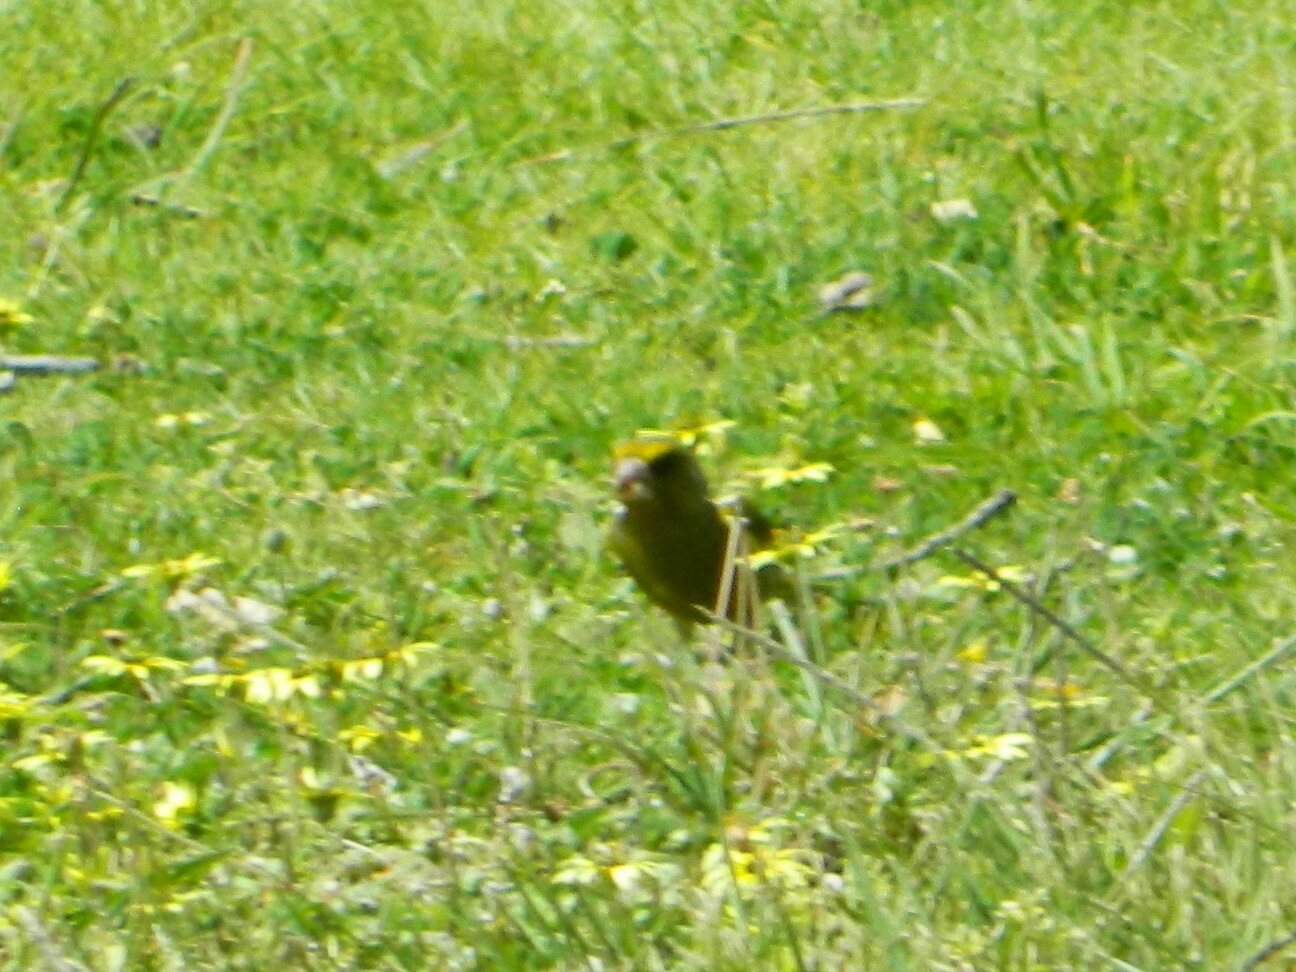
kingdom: Plantae
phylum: Tracheophyta
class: Liliopsida
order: Poales
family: Poaceae
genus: Chloris
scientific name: Chloris chloris
